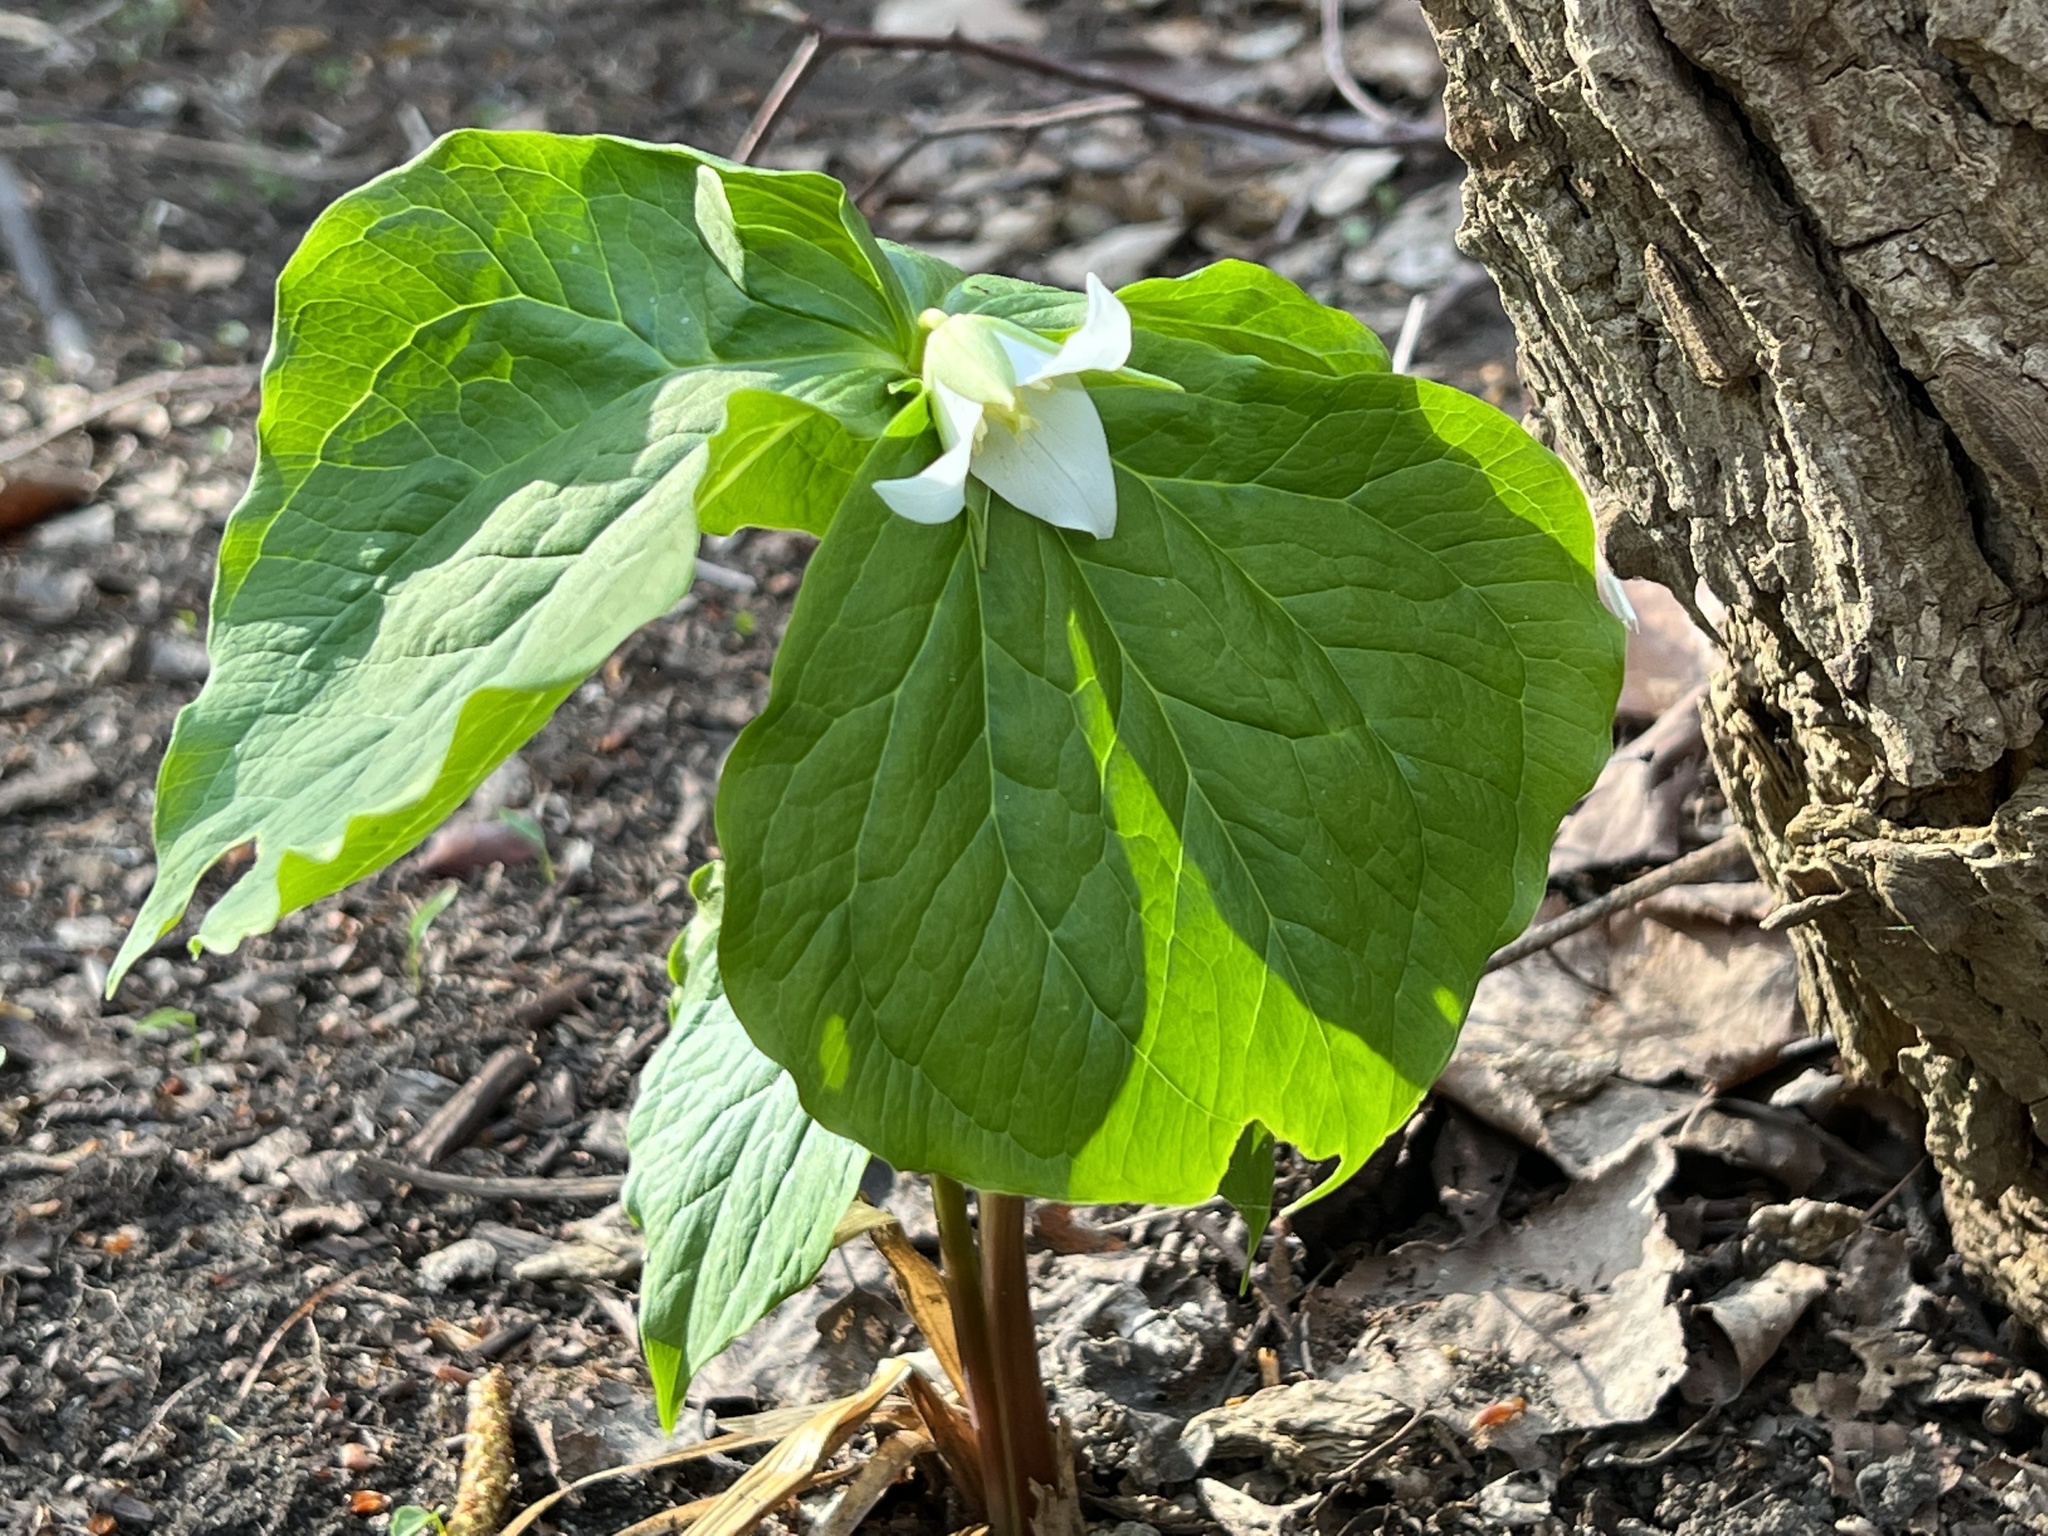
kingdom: Plantae
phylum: Tracheophyta
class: Liliopsida
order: Liliales
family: Melanthiaceae
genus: Trillium
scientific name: Trillium tschonoskii
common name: A pearl on head
